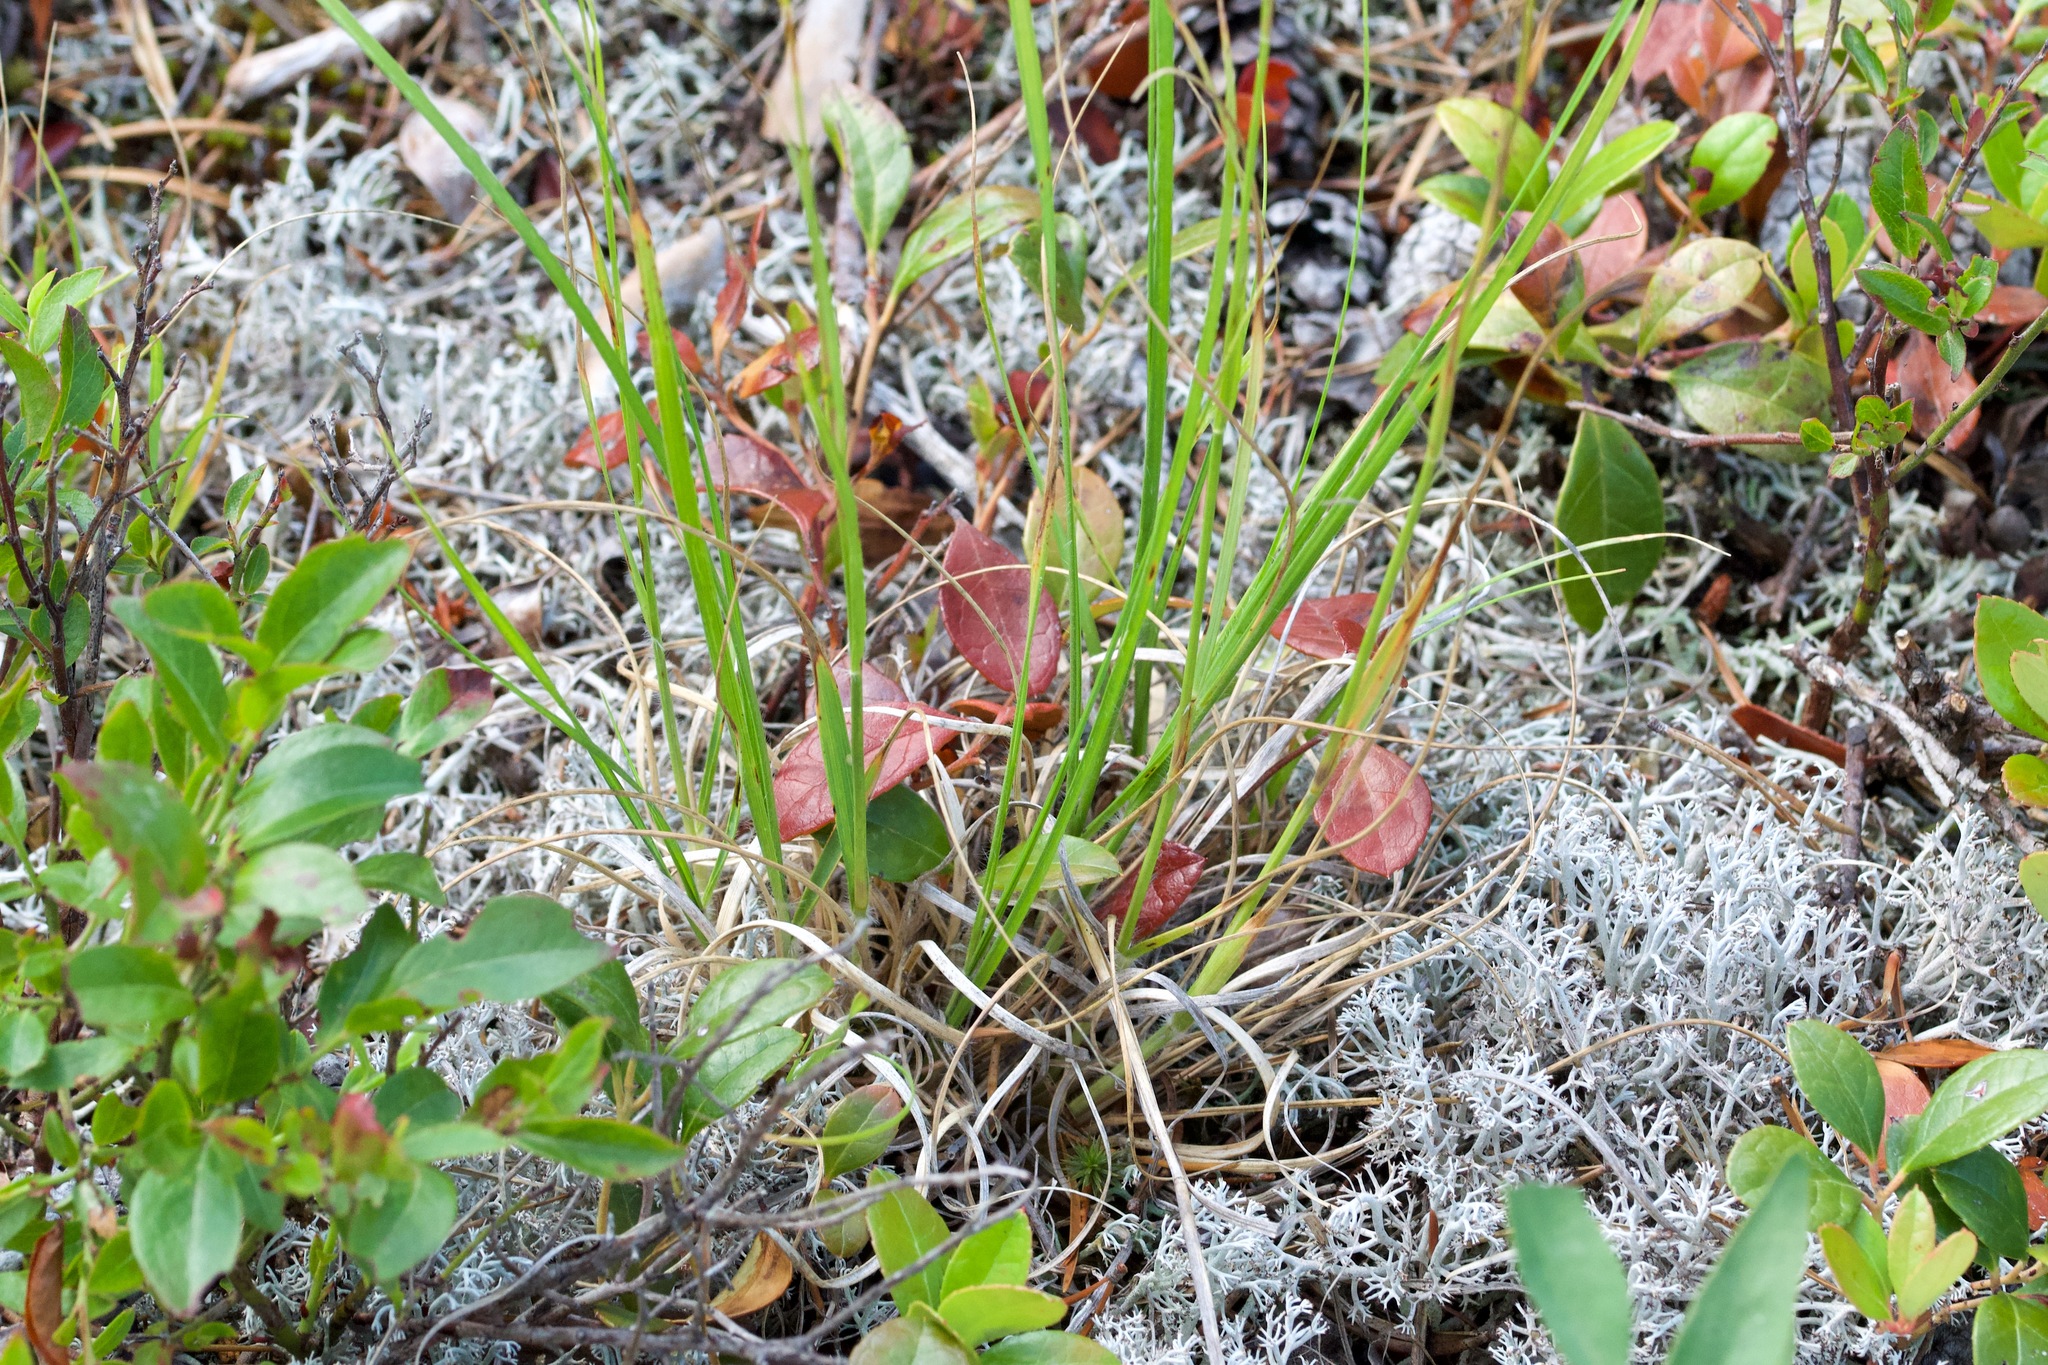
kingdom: Plantae
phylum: Tracheophyta
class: Liliopsida
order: Poales
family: Poaceae
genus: Danthonia
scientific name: Danthonia spicata
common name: Common wild oatgrass
